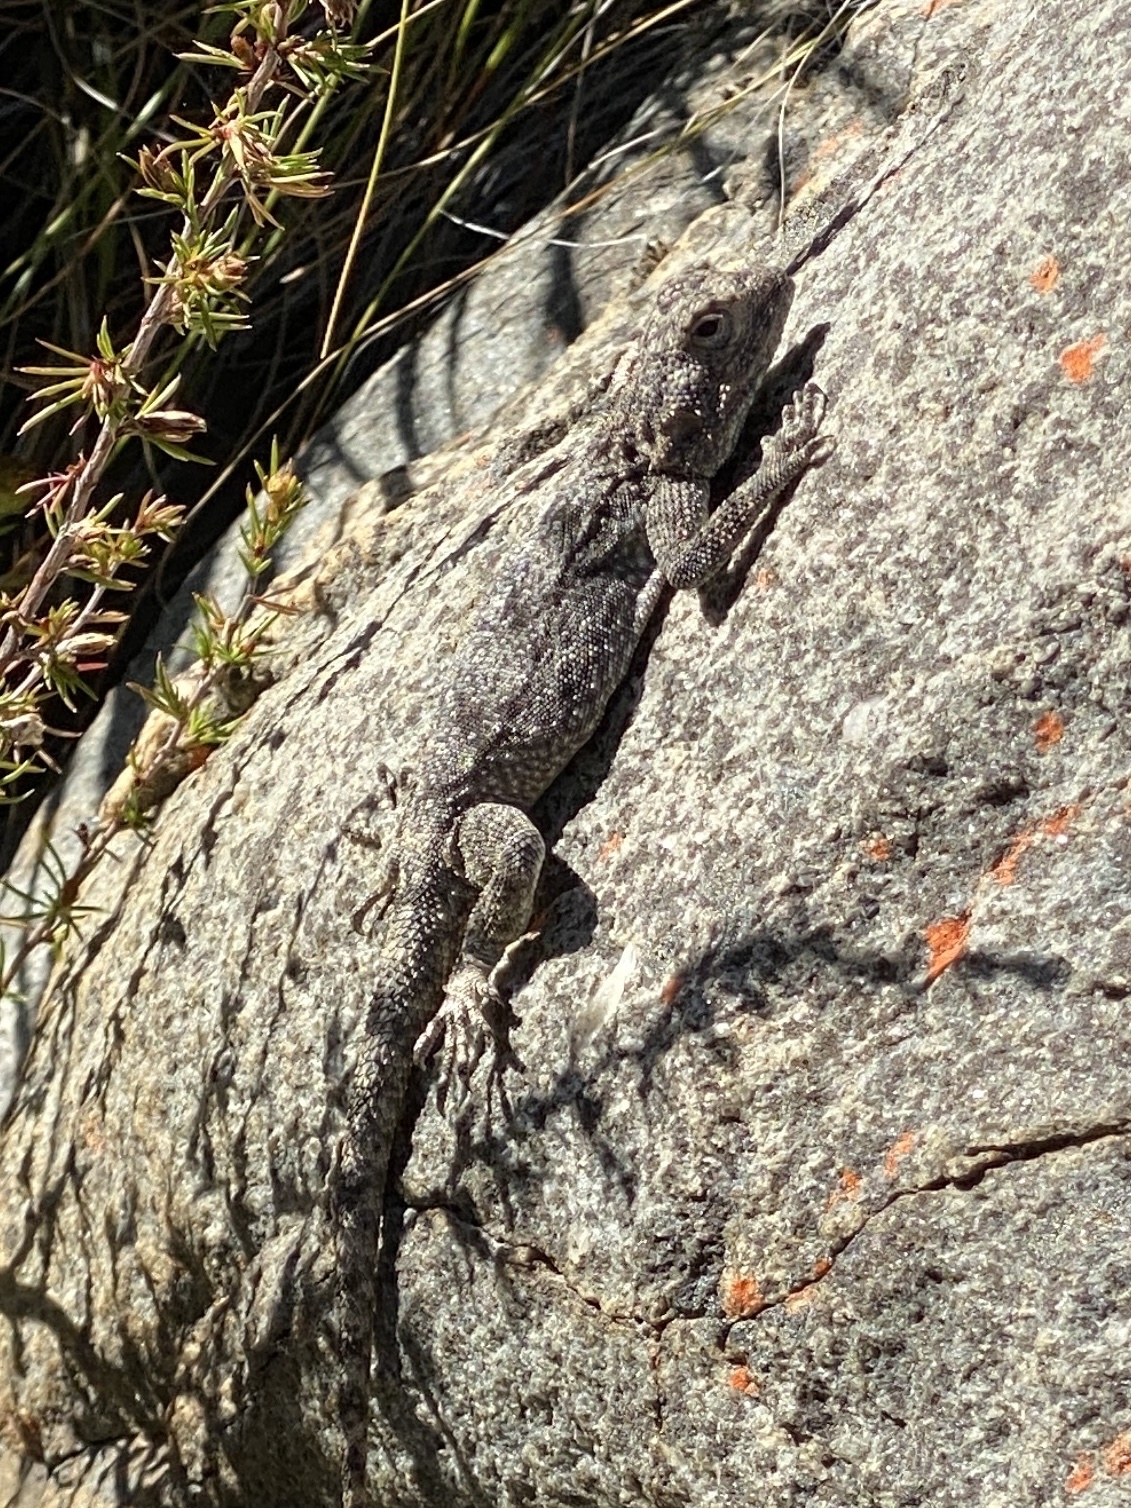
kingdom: Animalia
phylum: Chordata
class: Squamata
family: Agamidae
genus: Agama
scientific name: Agama atra
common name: Southern african rock agama
